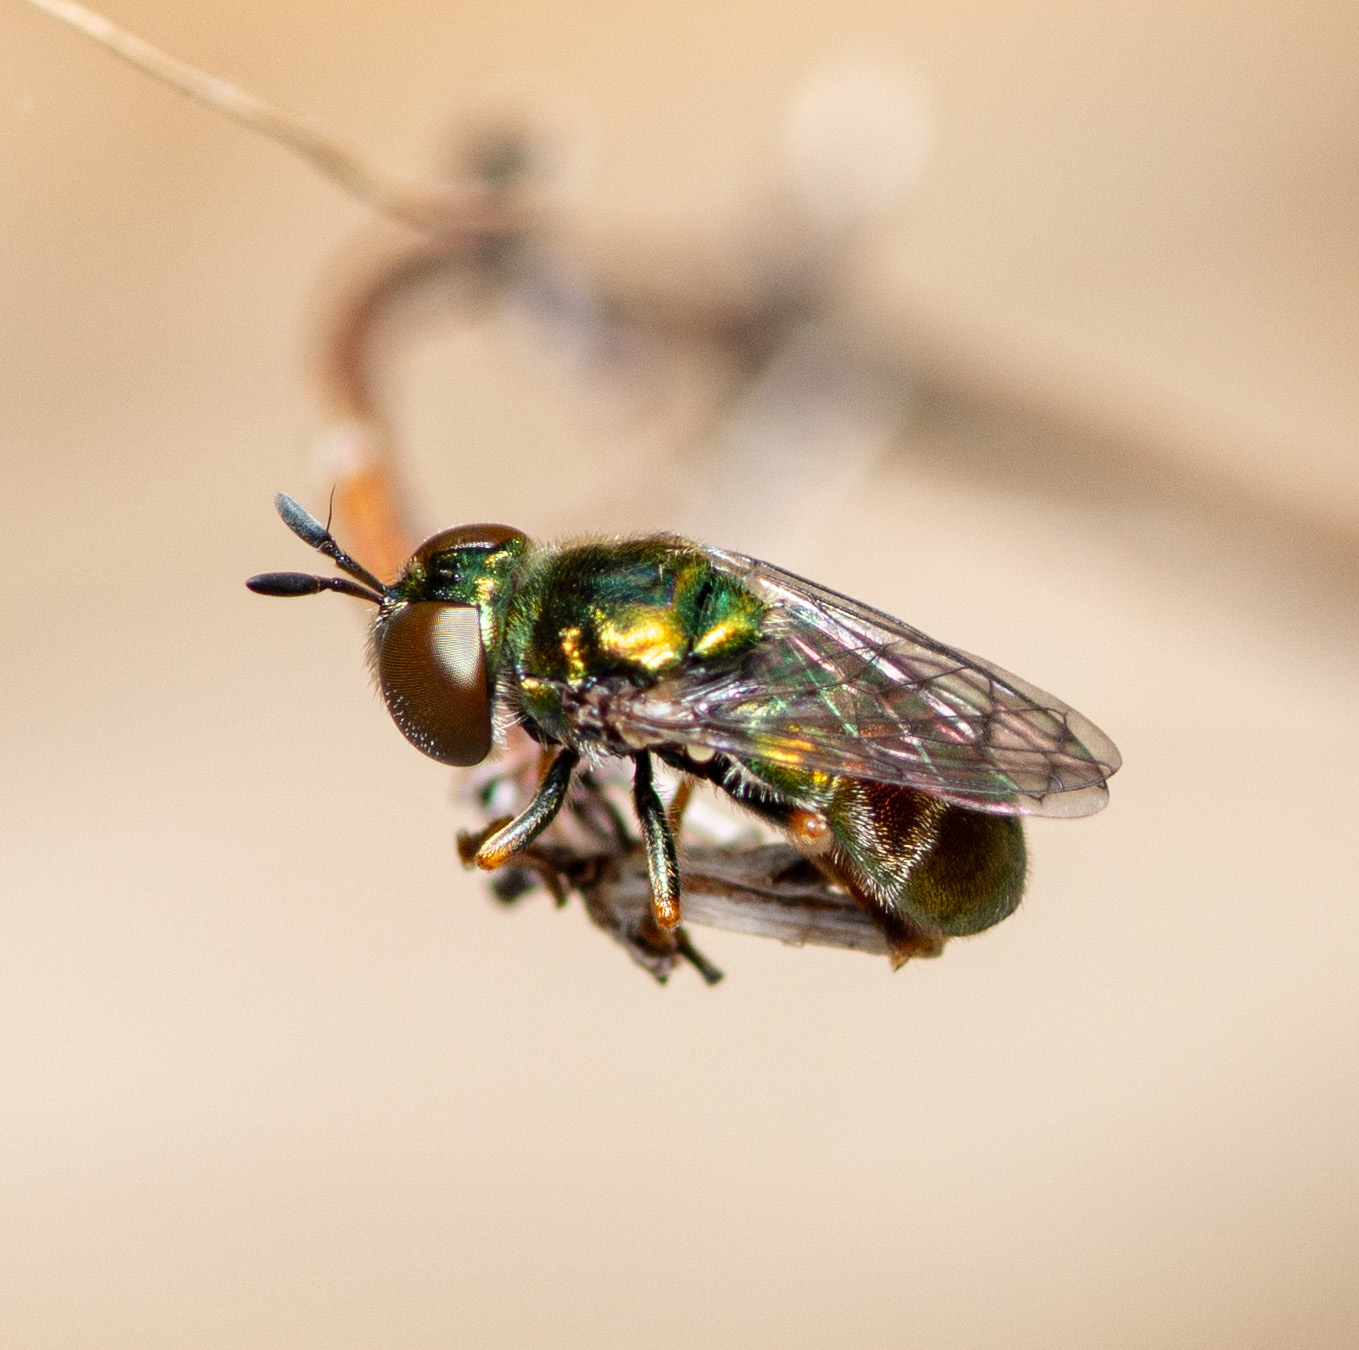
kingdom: Animalia
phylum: Arthropoda
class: Insecta
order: Diptera
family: Syrphidae
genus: Laetodon
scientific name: Laetodon laetus
